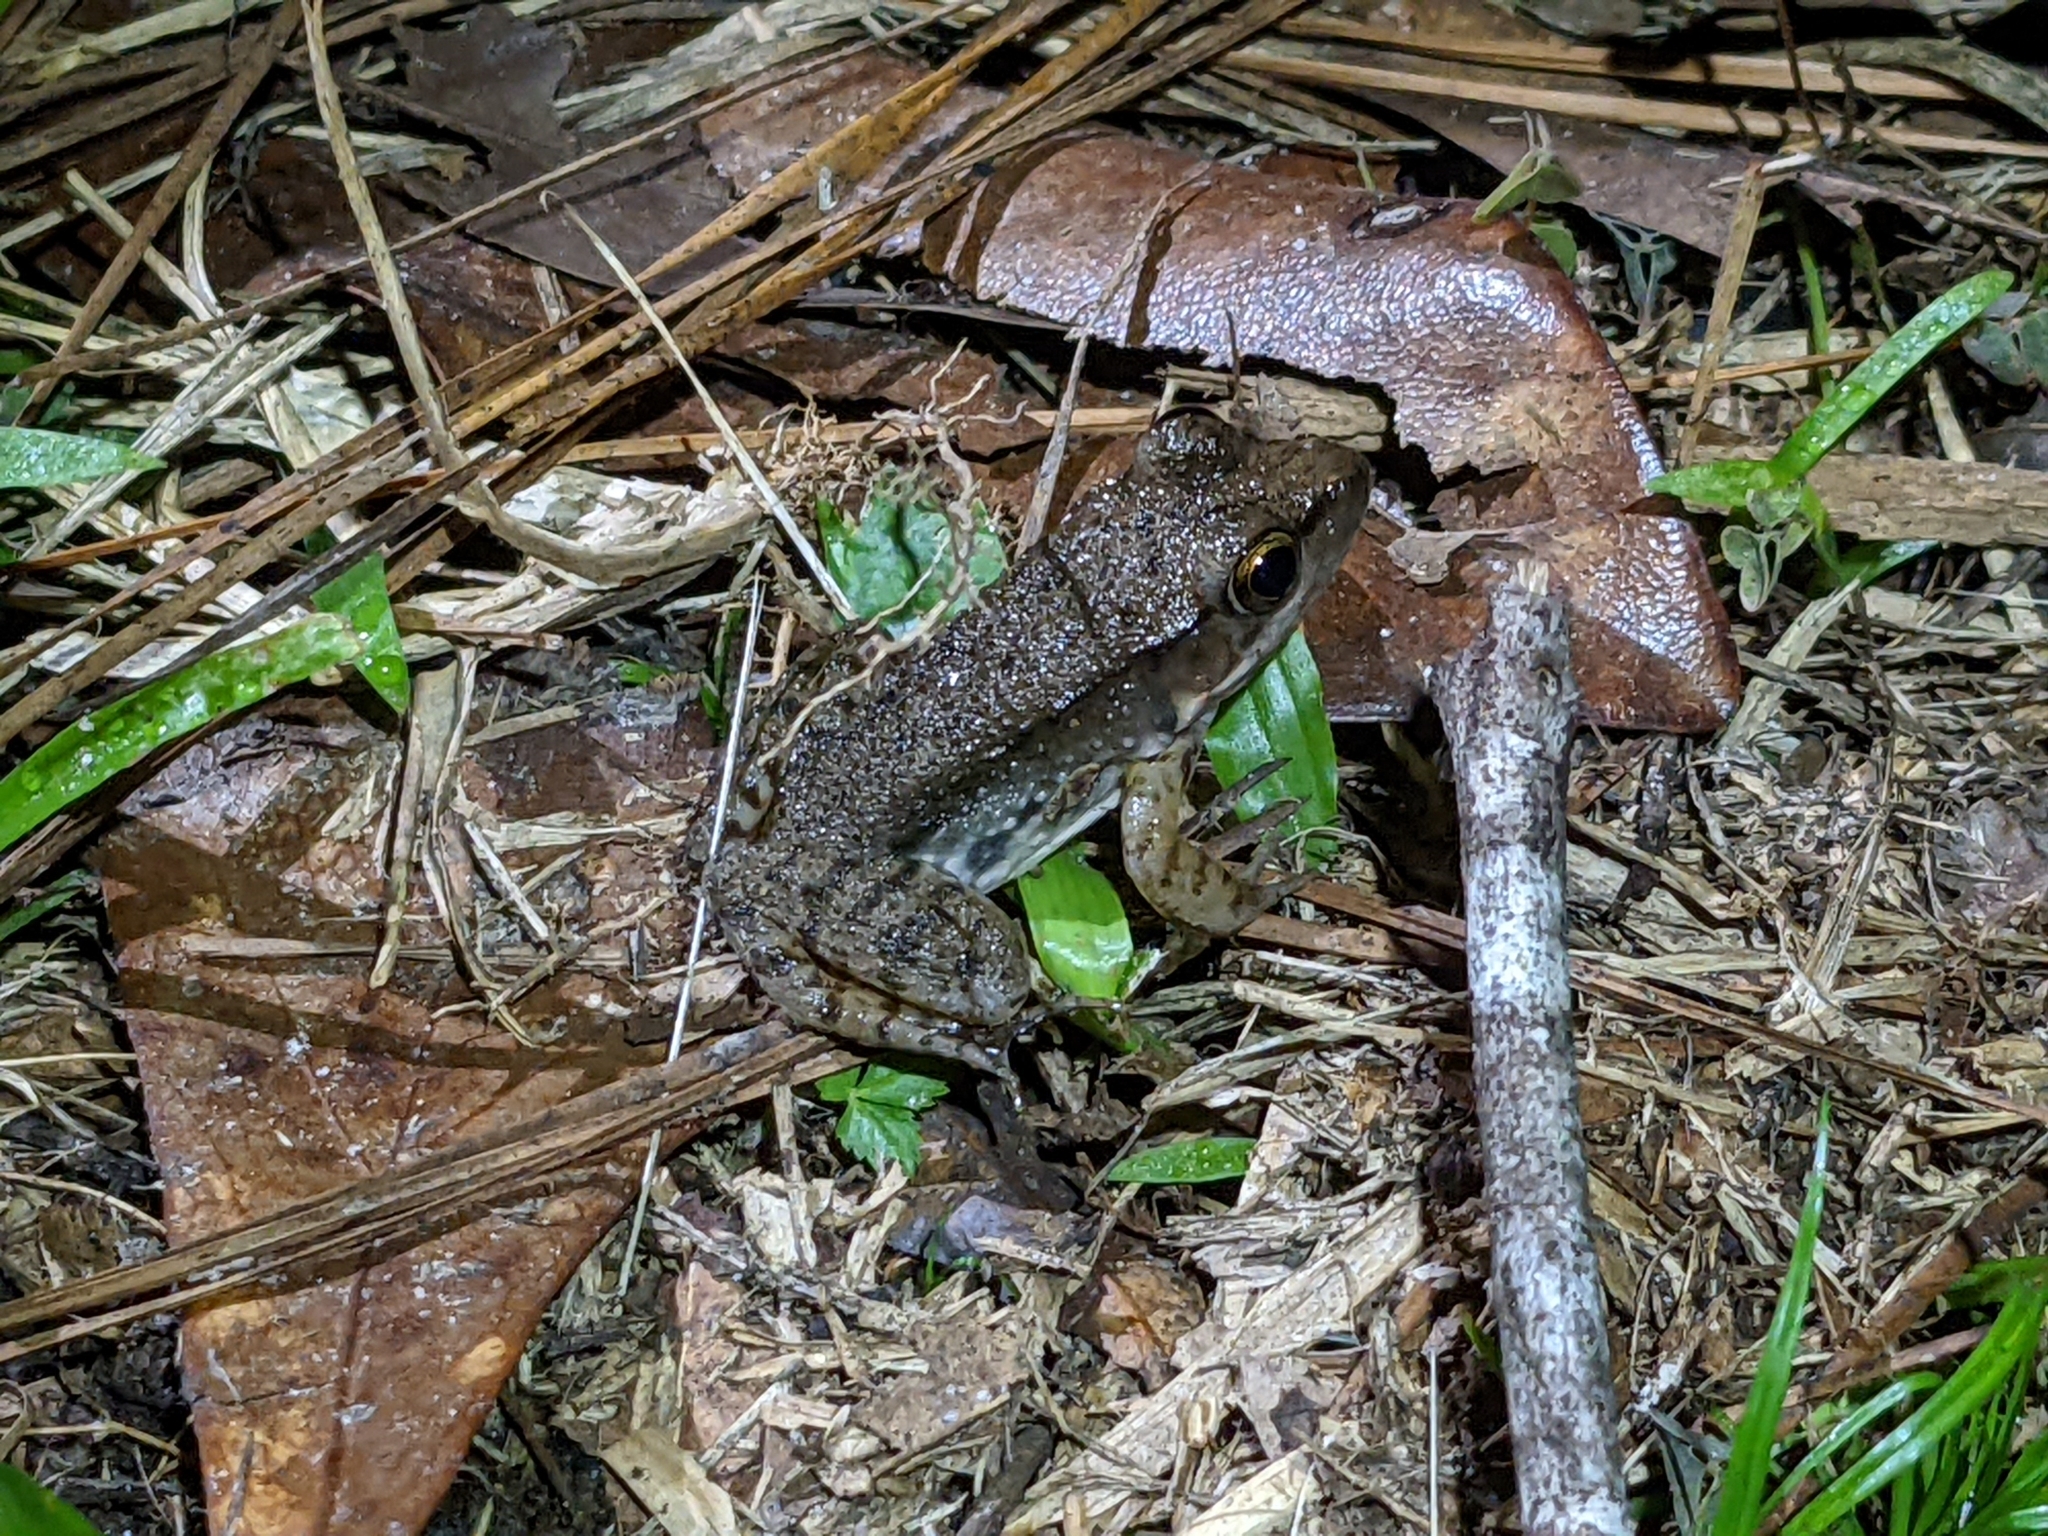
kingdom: Animalia
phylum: Chordata
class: Amphibia
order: Anura
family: Ranidae
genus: Lithobates
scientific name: Lithobates clamitans
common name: Green frog
